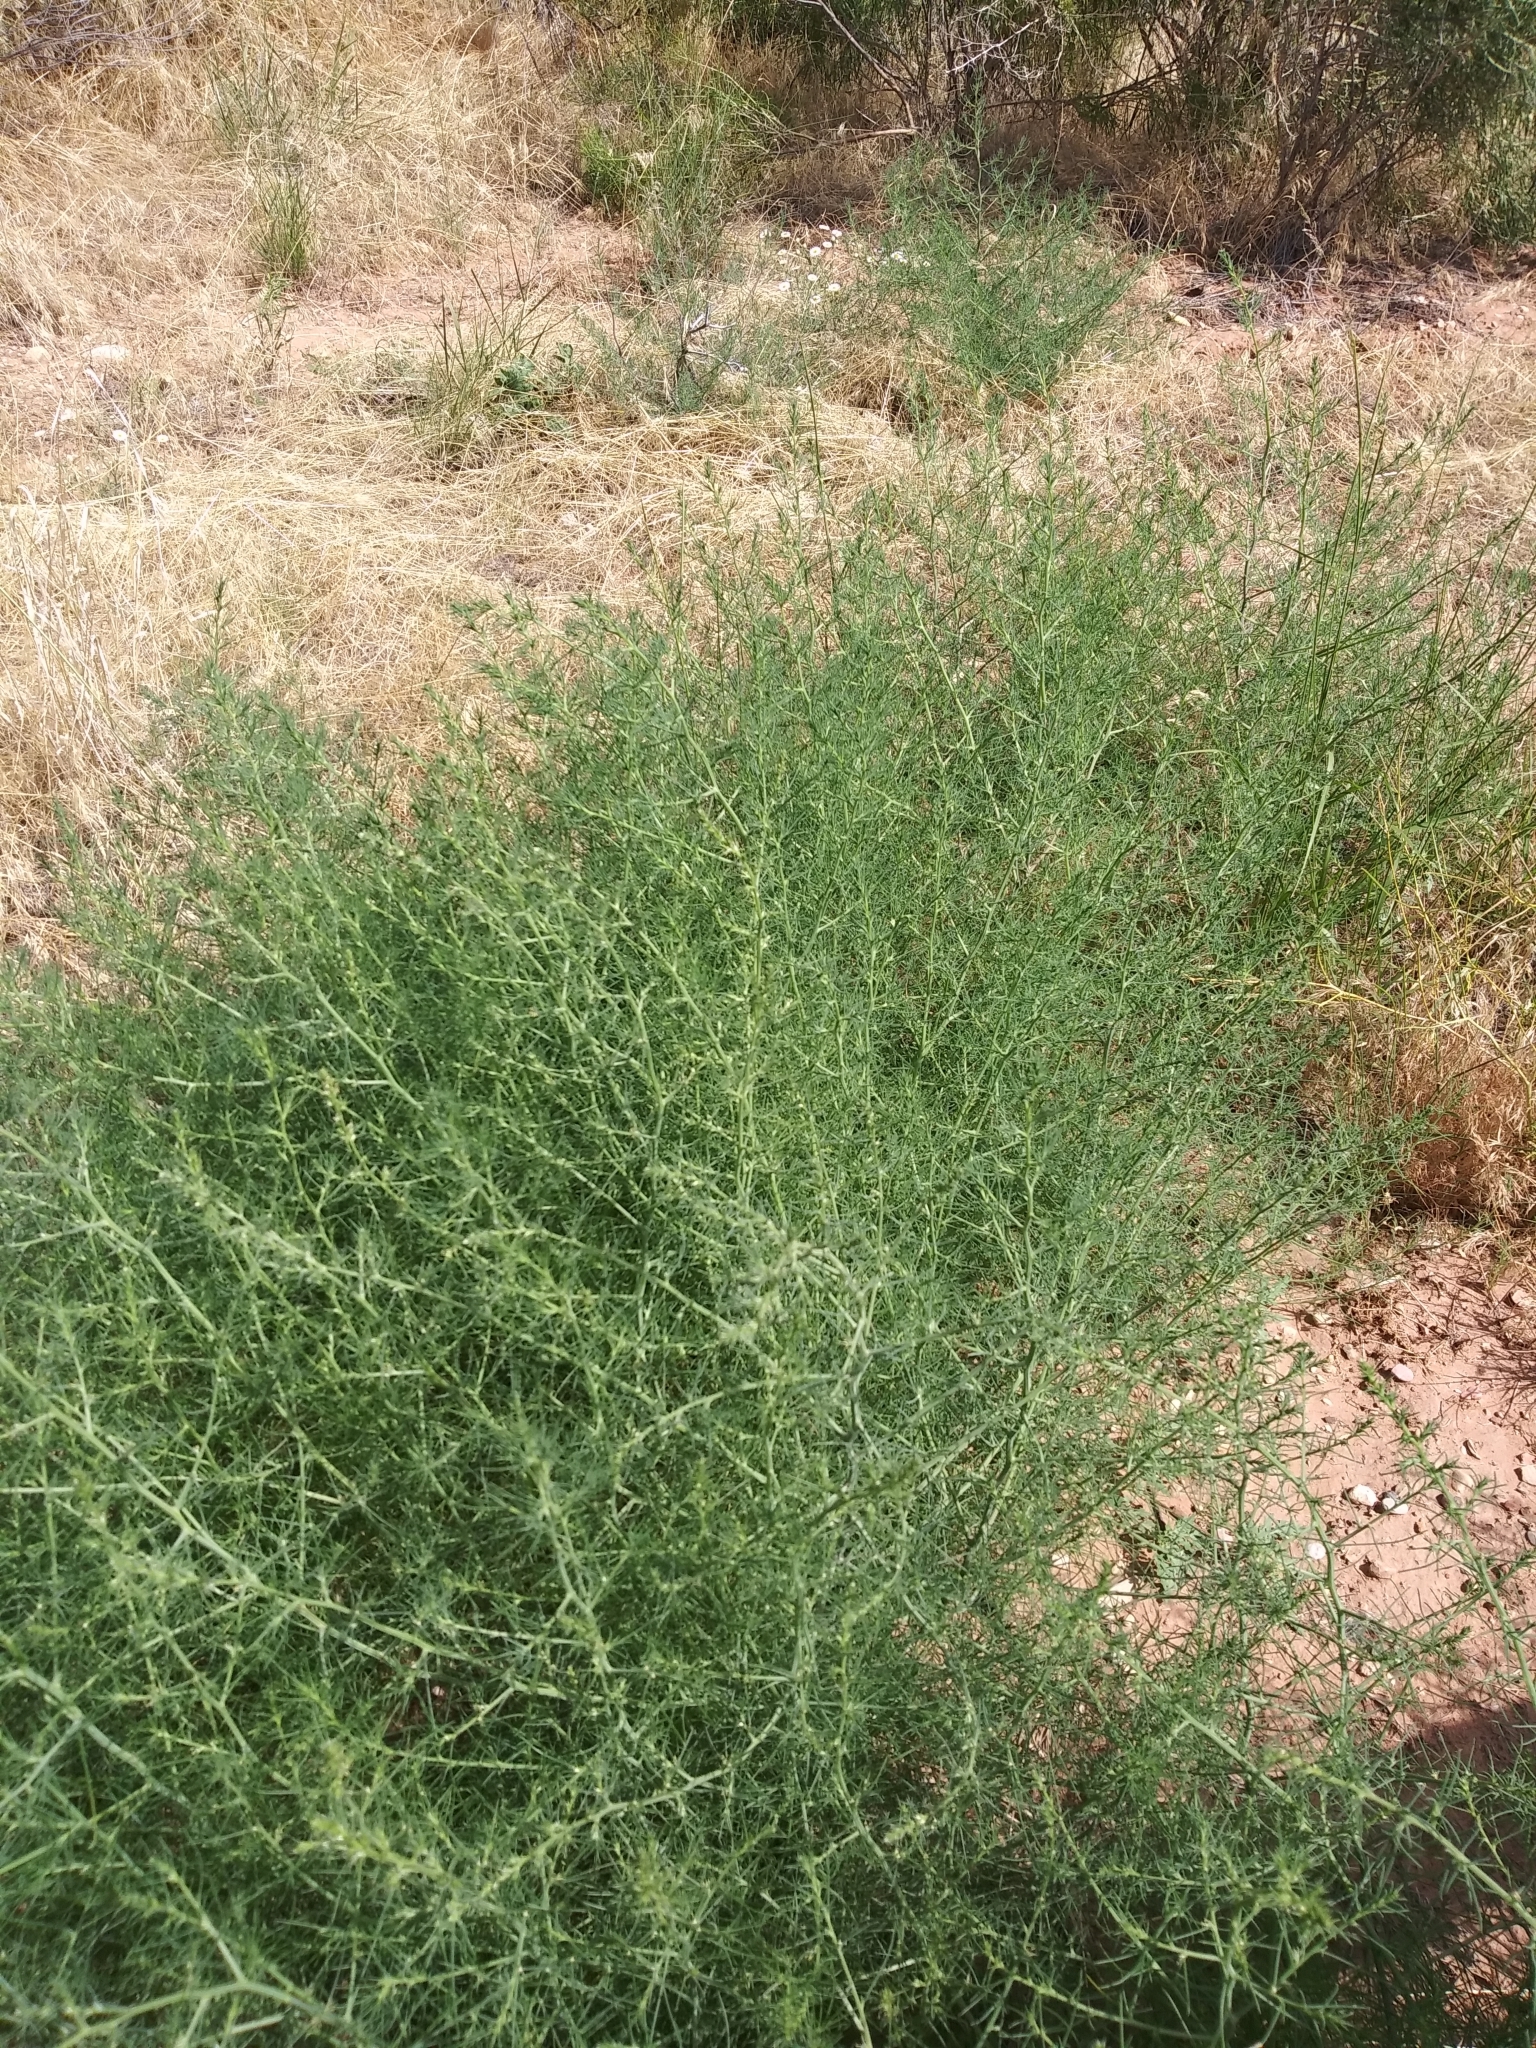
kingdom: Plantae
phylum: Tracheophyta
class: Magnoliopsida
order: Caryophyllales
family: Amaranthaceae
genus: Salsola
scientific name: Salsola tragus
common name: Prickly russian thistle
